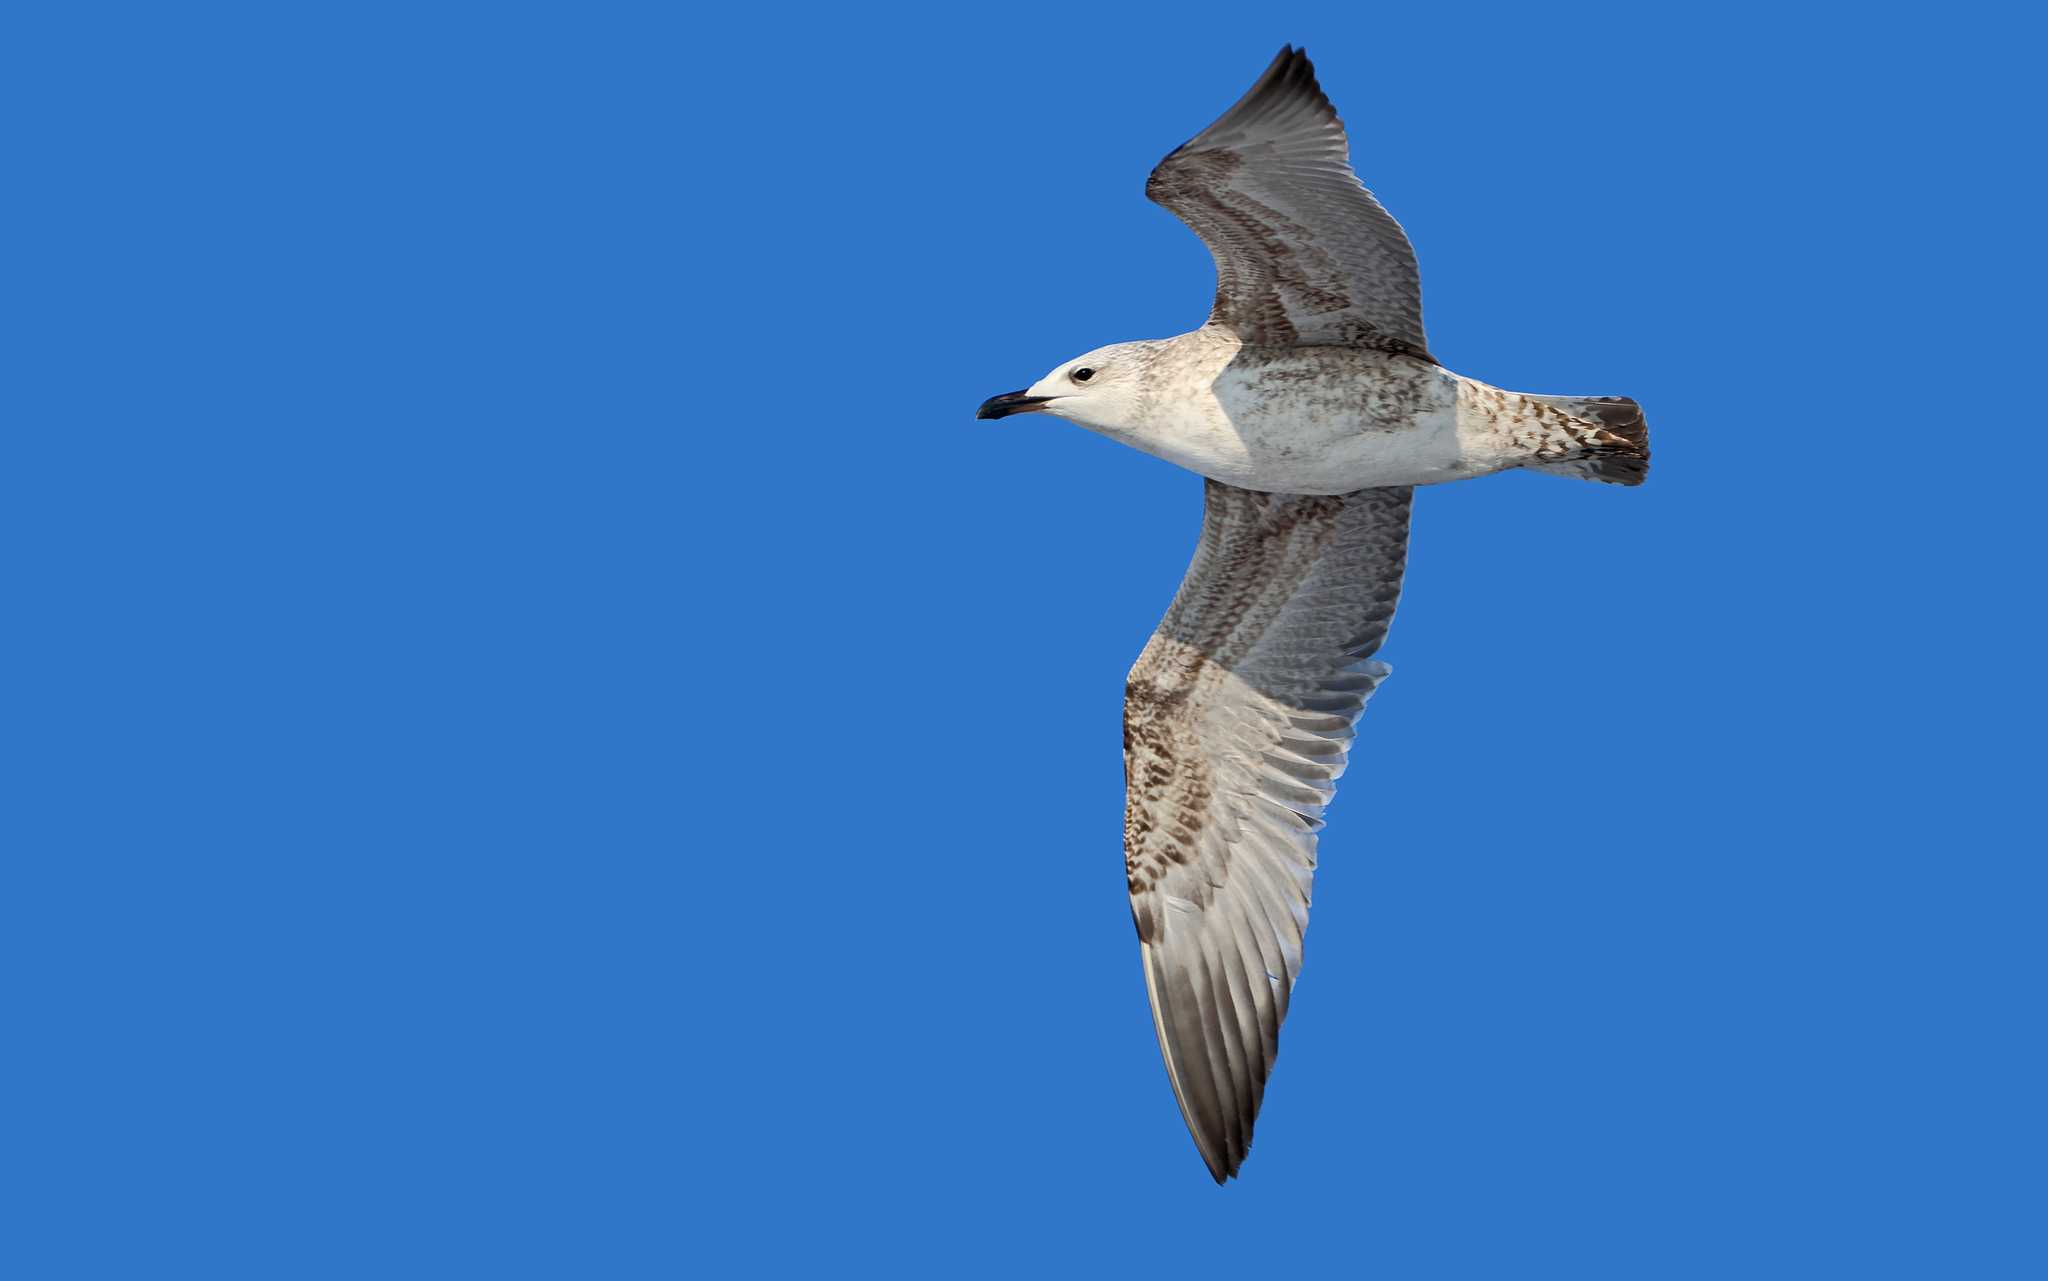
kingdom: Animalia
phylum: Chordata
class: Aves
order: Charadriiformes
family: Laridae
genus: Larus
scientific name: Larus michahellis
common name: Yellow-legged gull
